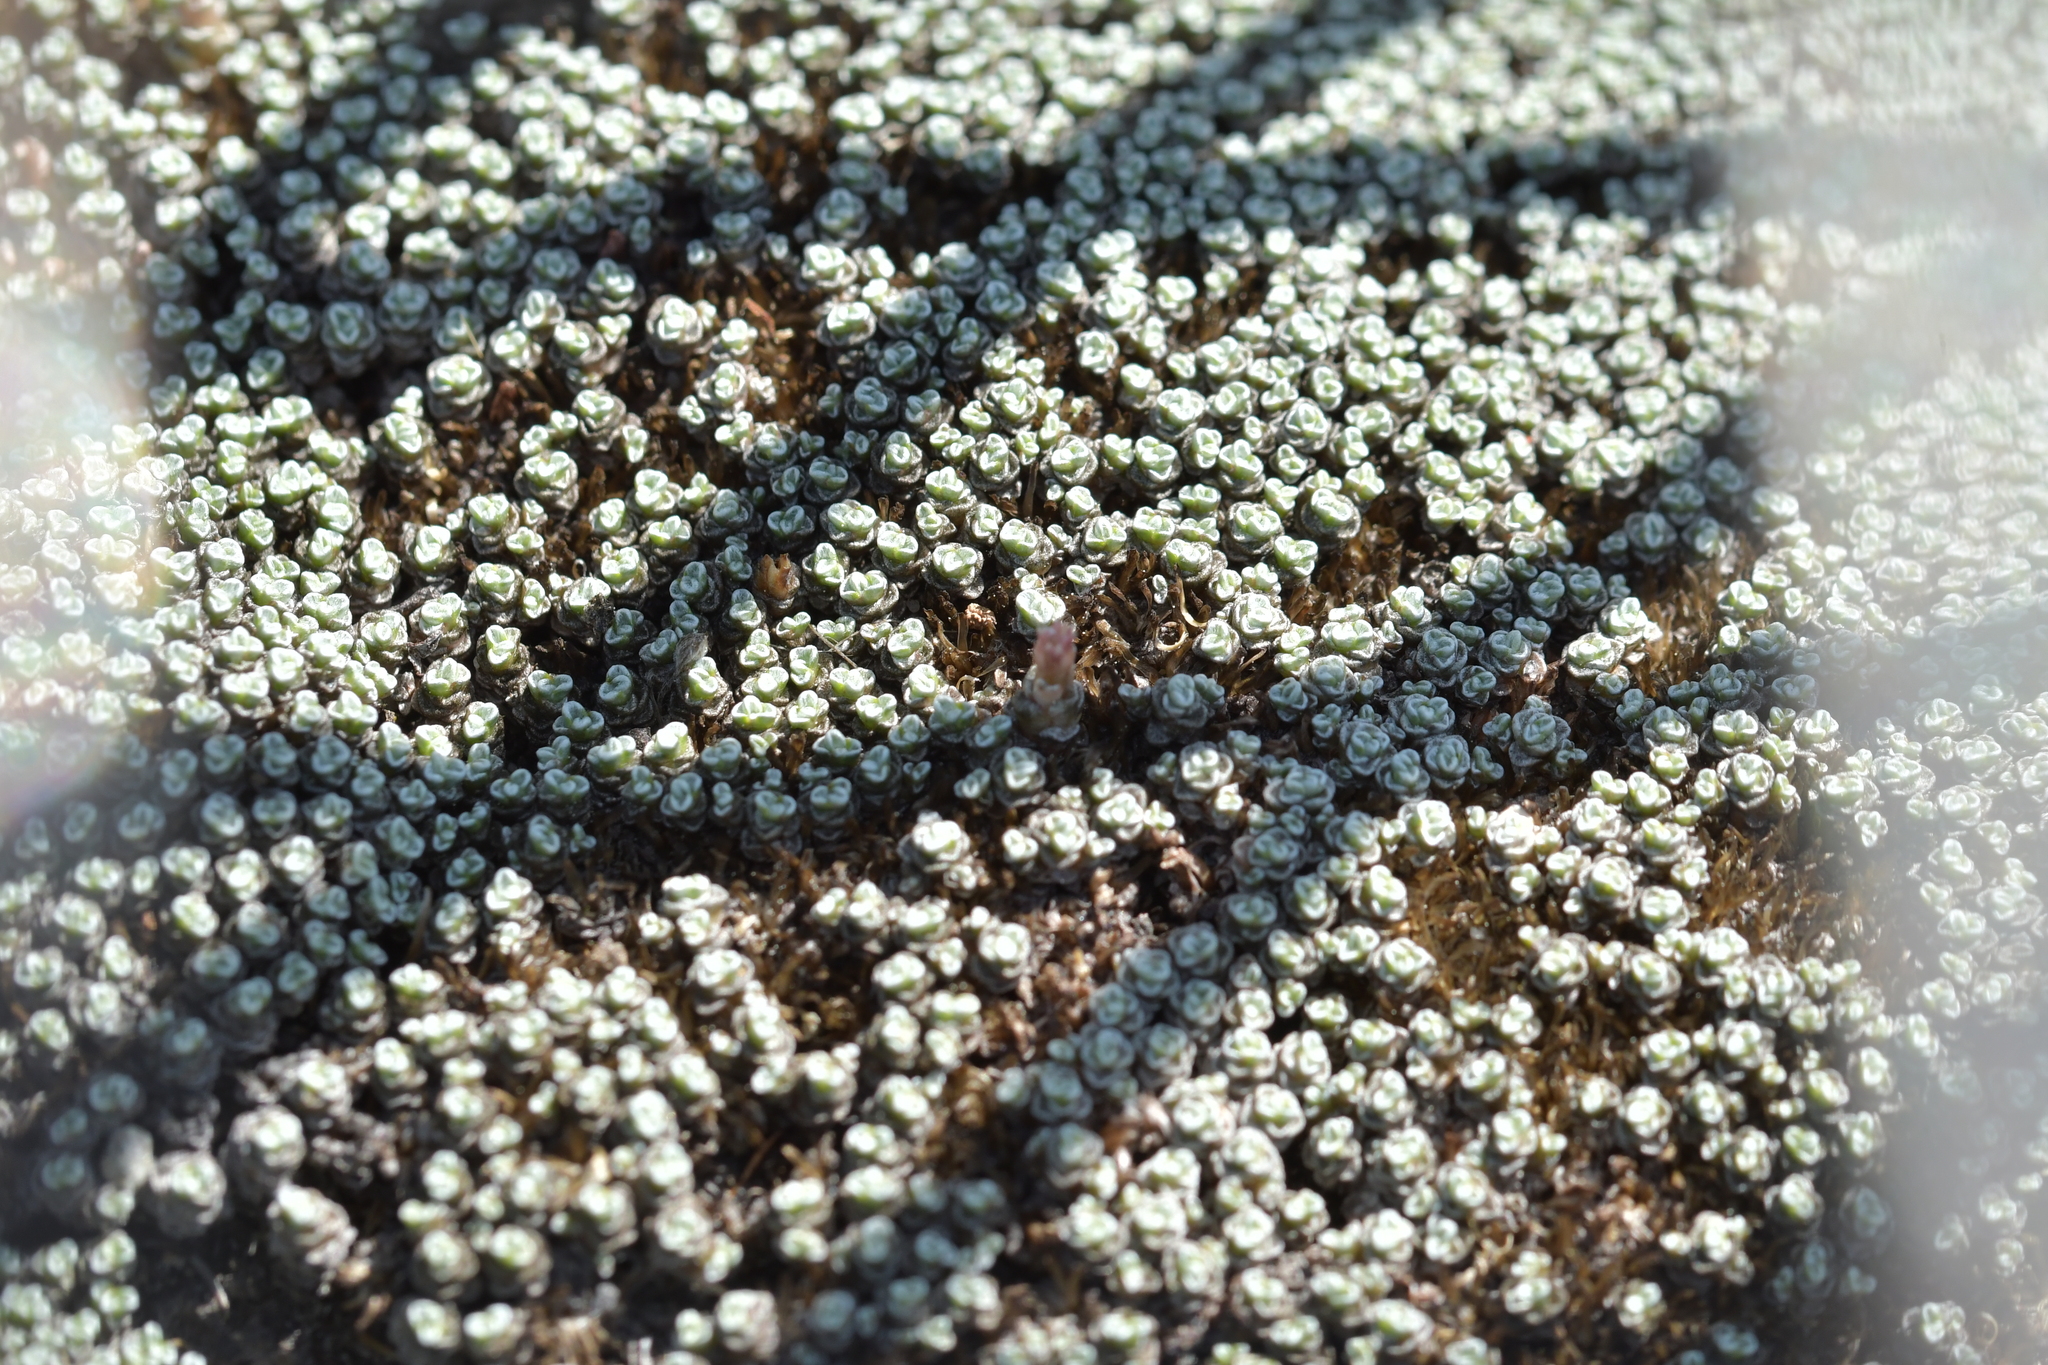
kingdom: Plantae
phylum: Tracheophyta
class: Magnoliopsida
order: Asterales
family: Asteraceae
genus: Raoulia
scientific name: Raoulia australis
